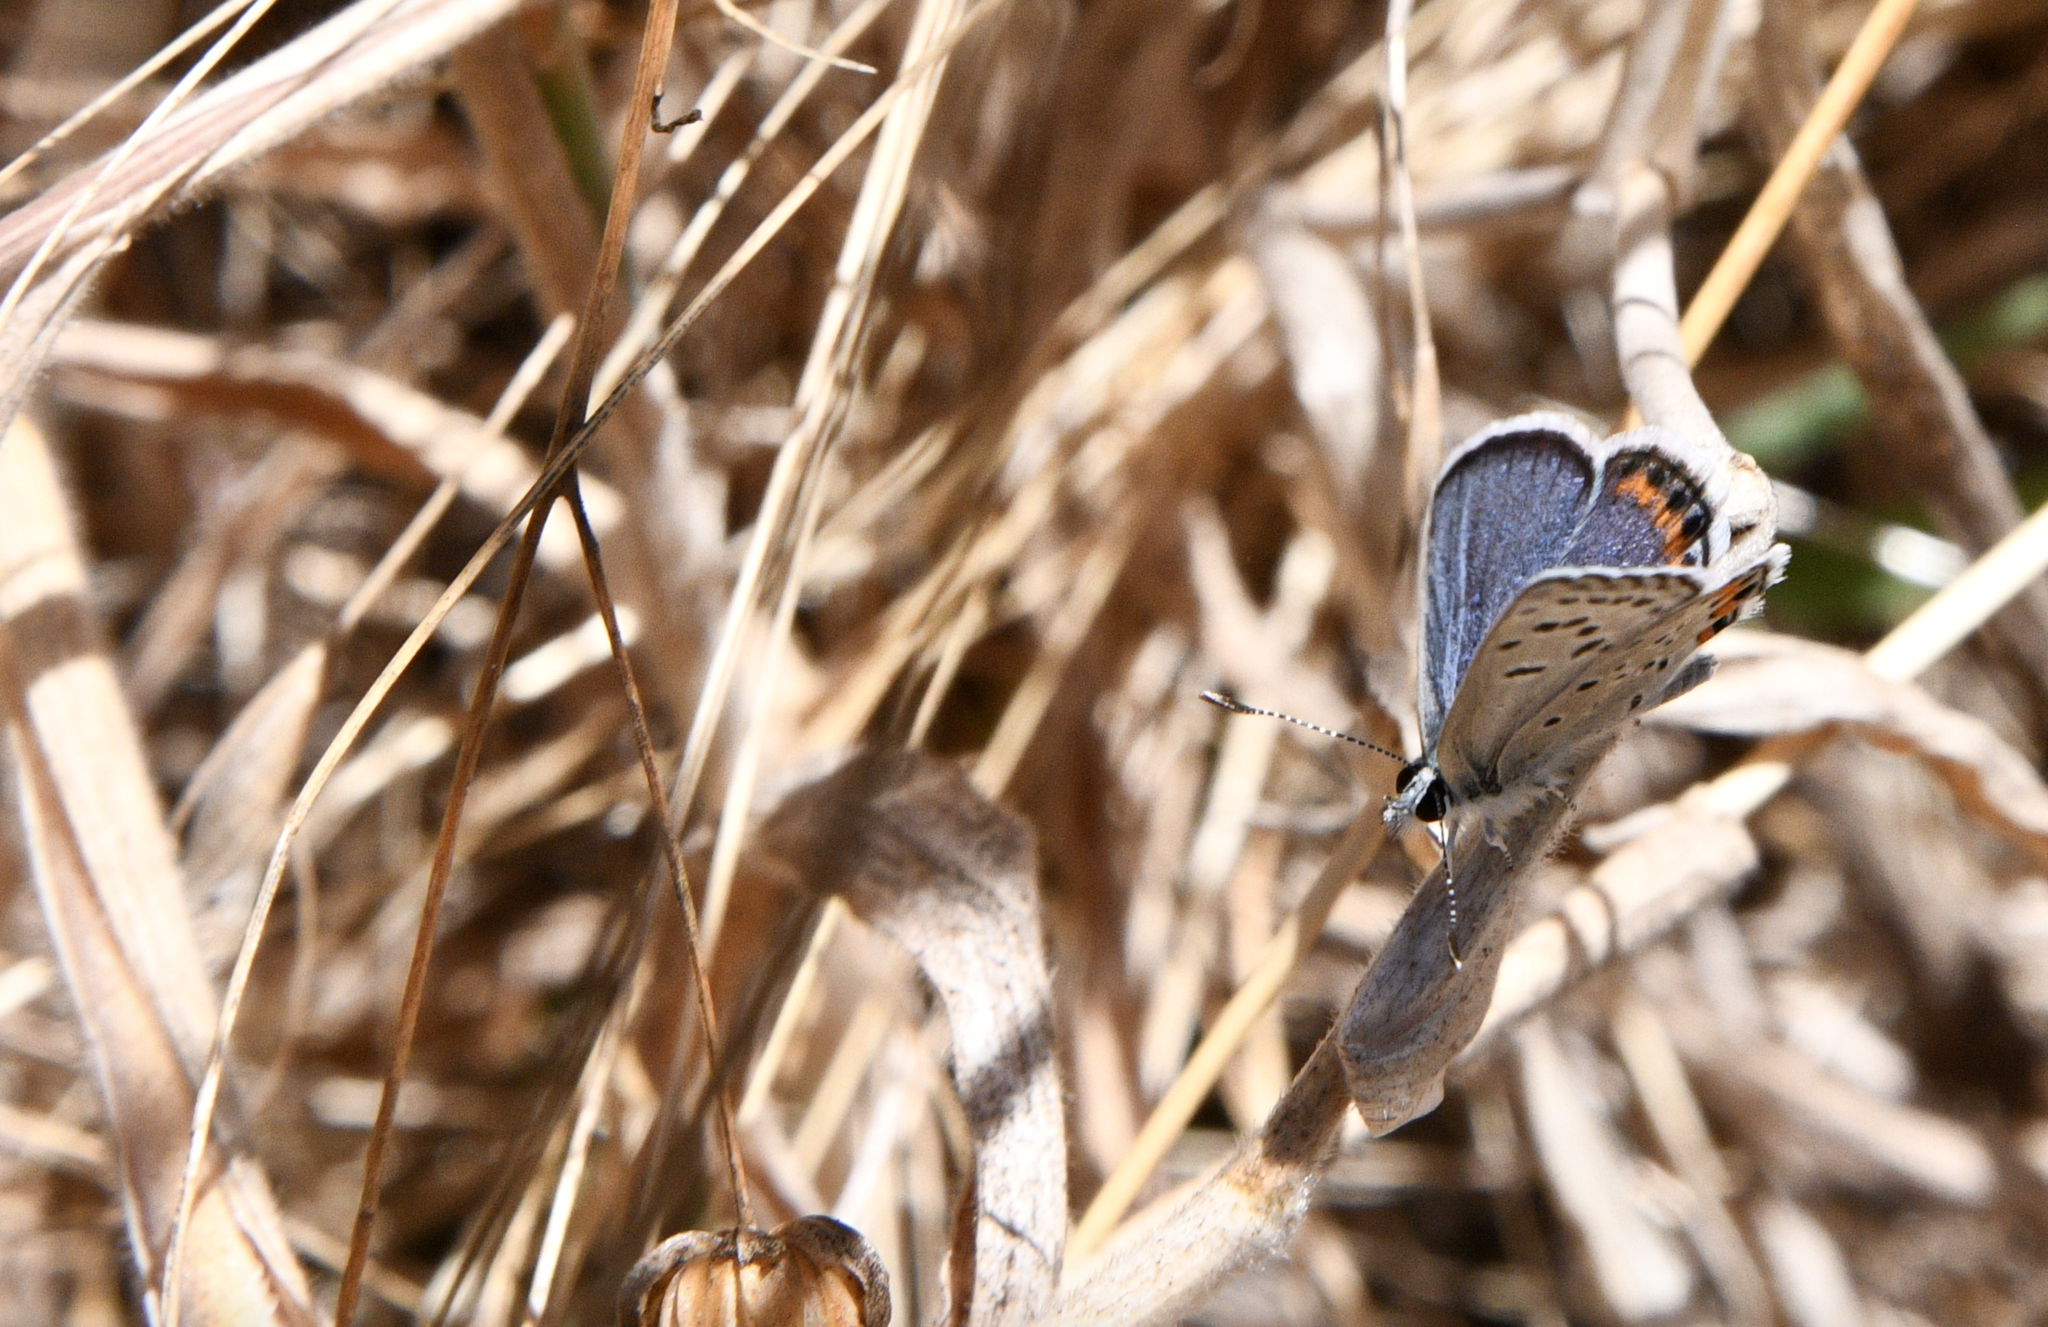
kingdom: Animalia
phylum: Arthropoda
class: Insecta
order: Lepidoptera
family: Lycaenidae
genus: Icaricia
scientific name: Icaricia acmon
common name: Acmon blue
